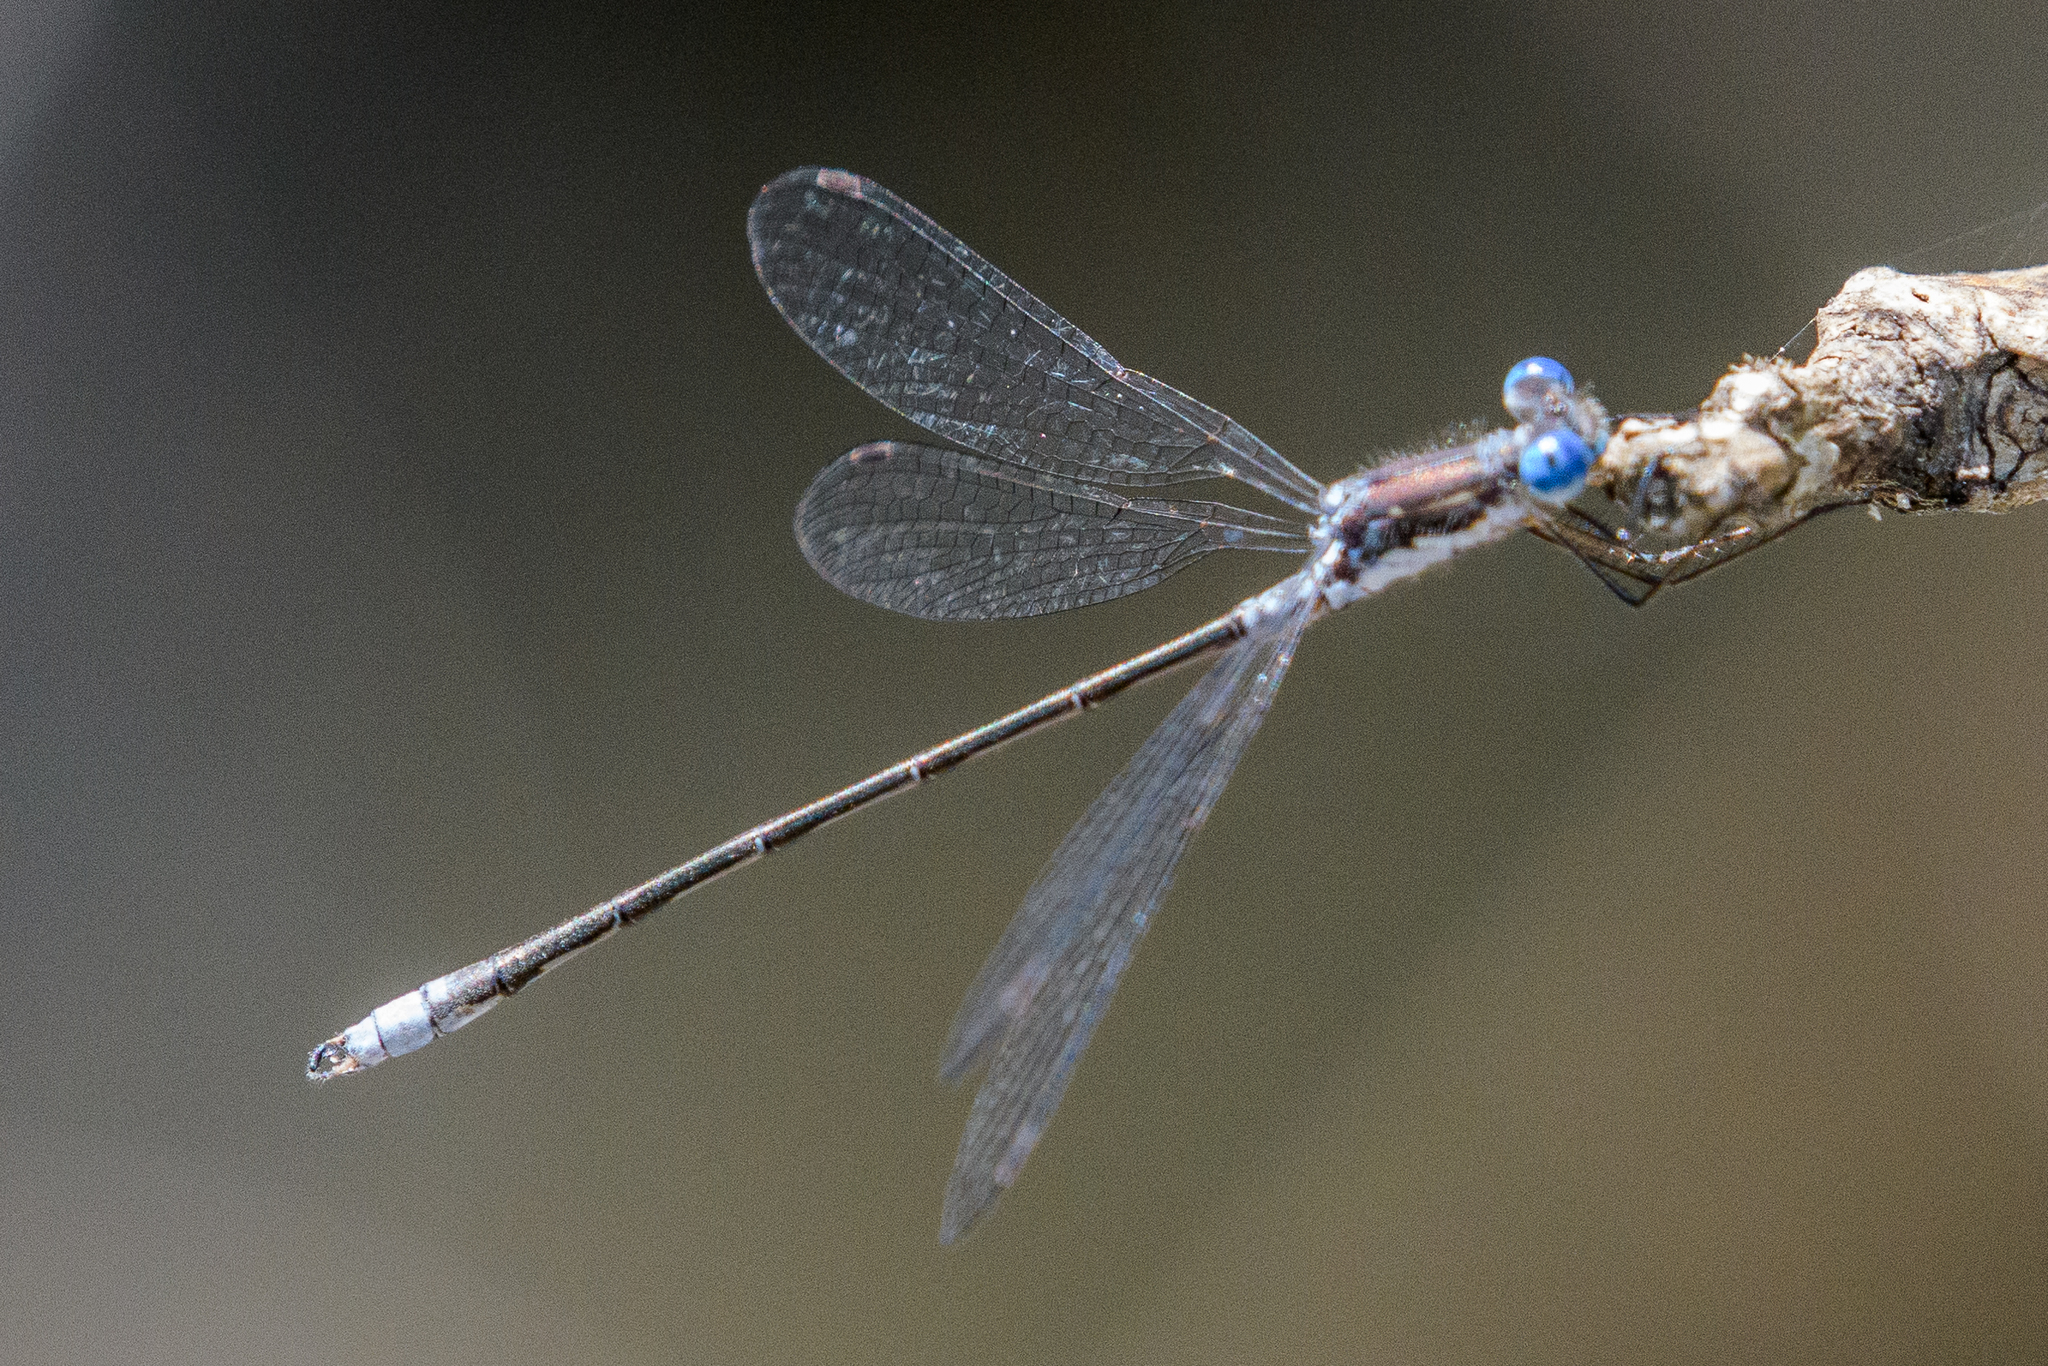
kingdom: Animalia
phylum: Arthropoda
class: Insecta
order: Odonata
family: Lestidae
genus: Lestes
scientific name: Lestes congener
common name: Spotted spreadwing
